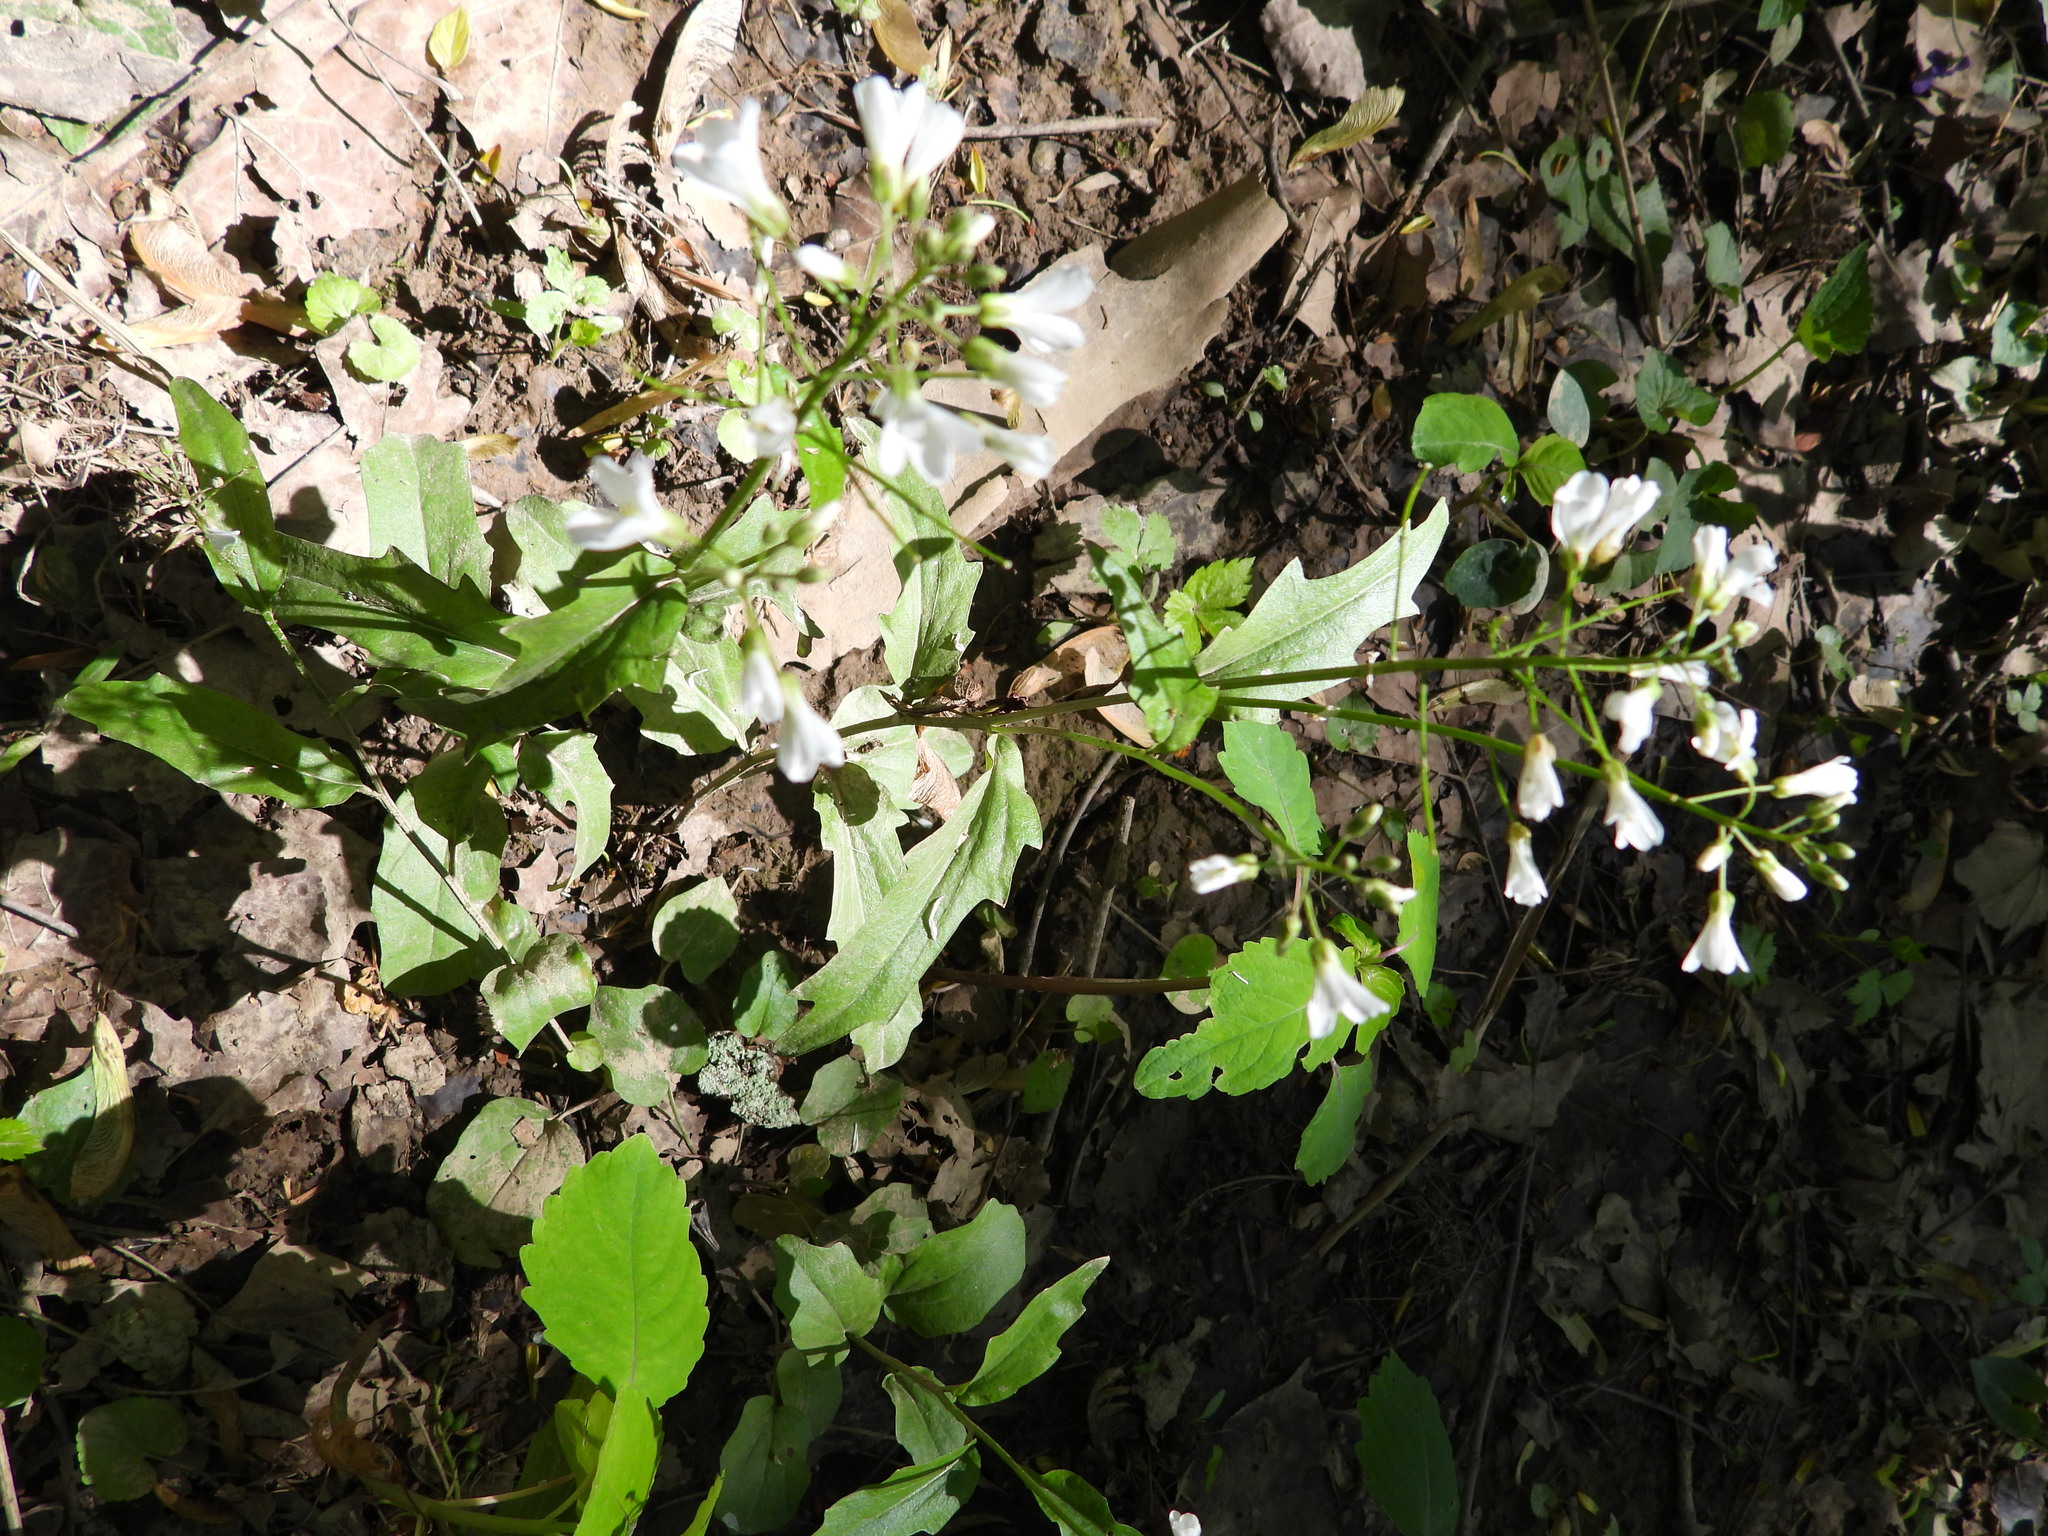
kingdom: Plantae
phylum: Tracheophyta
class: Magnoliopsida
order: Brassicales
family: Brassicaceae
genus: Cardamine
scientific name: Cardamine bulbosa
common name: Spring cress
